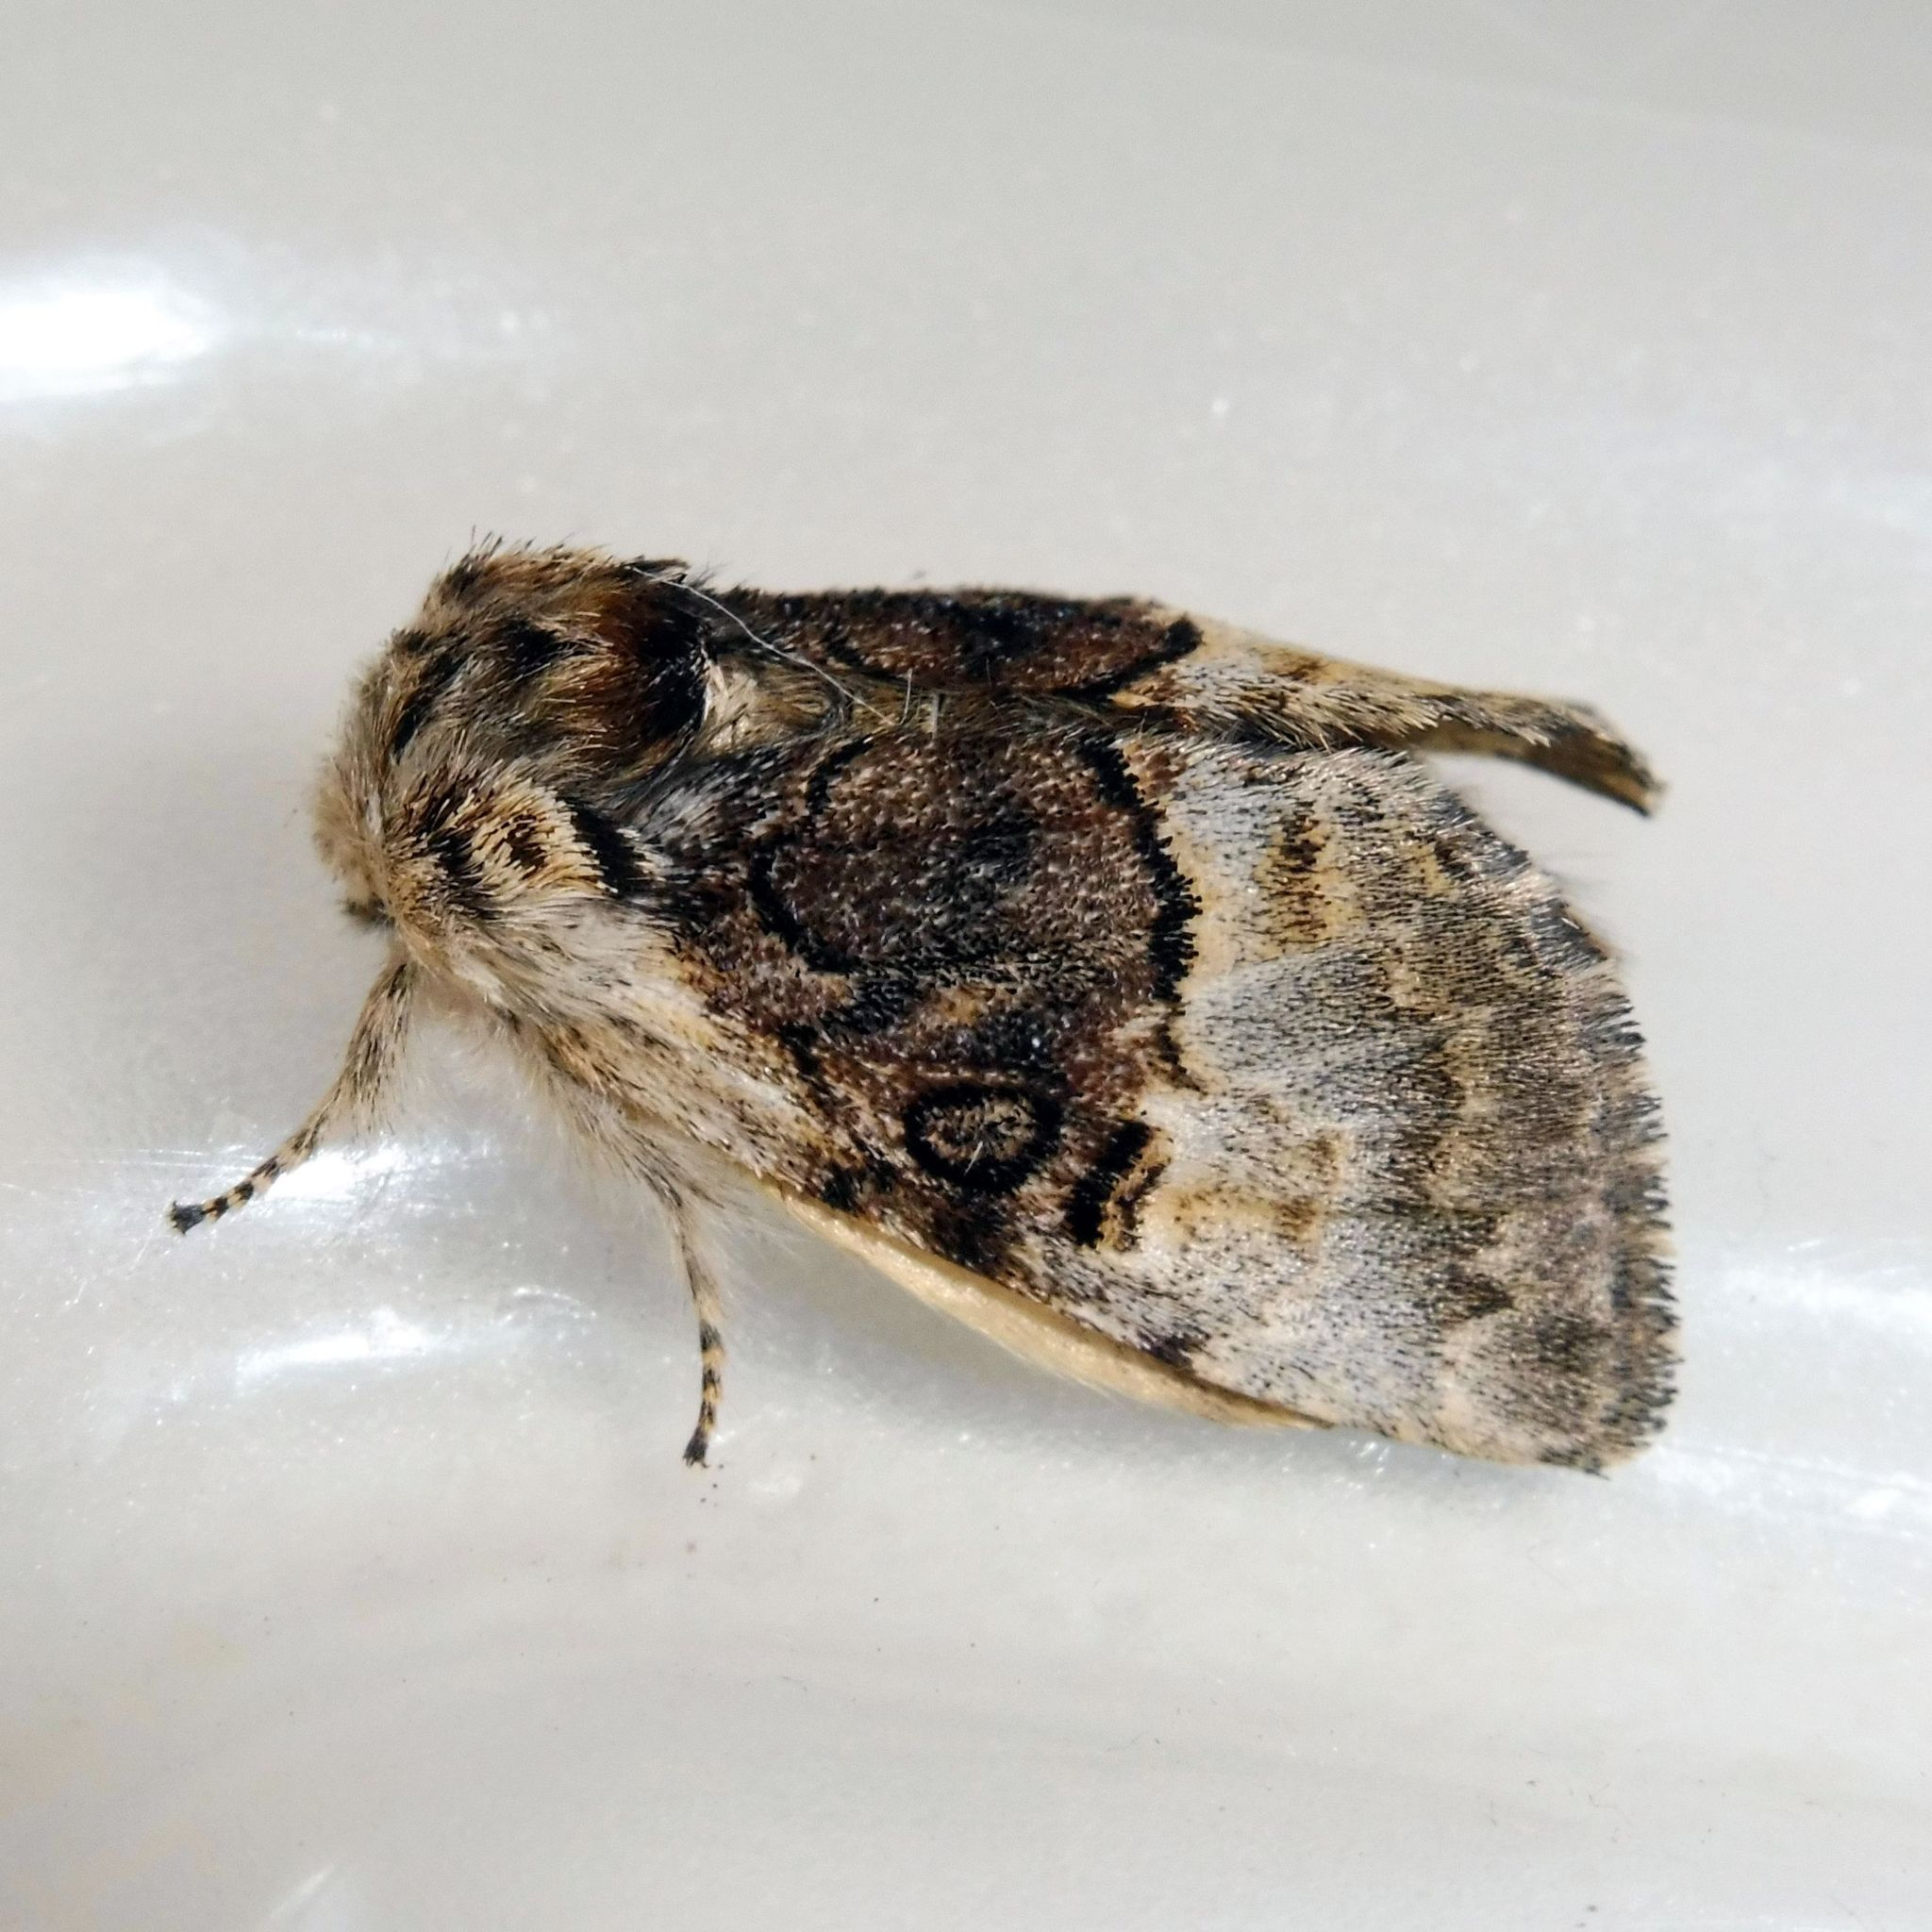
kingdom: Animalia
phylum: Arthropoda
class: Insecta
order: Lepidoptera
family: Noctuidae
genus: Colocasia
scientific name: Colocasia coryli
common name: Nut-tree tussock
